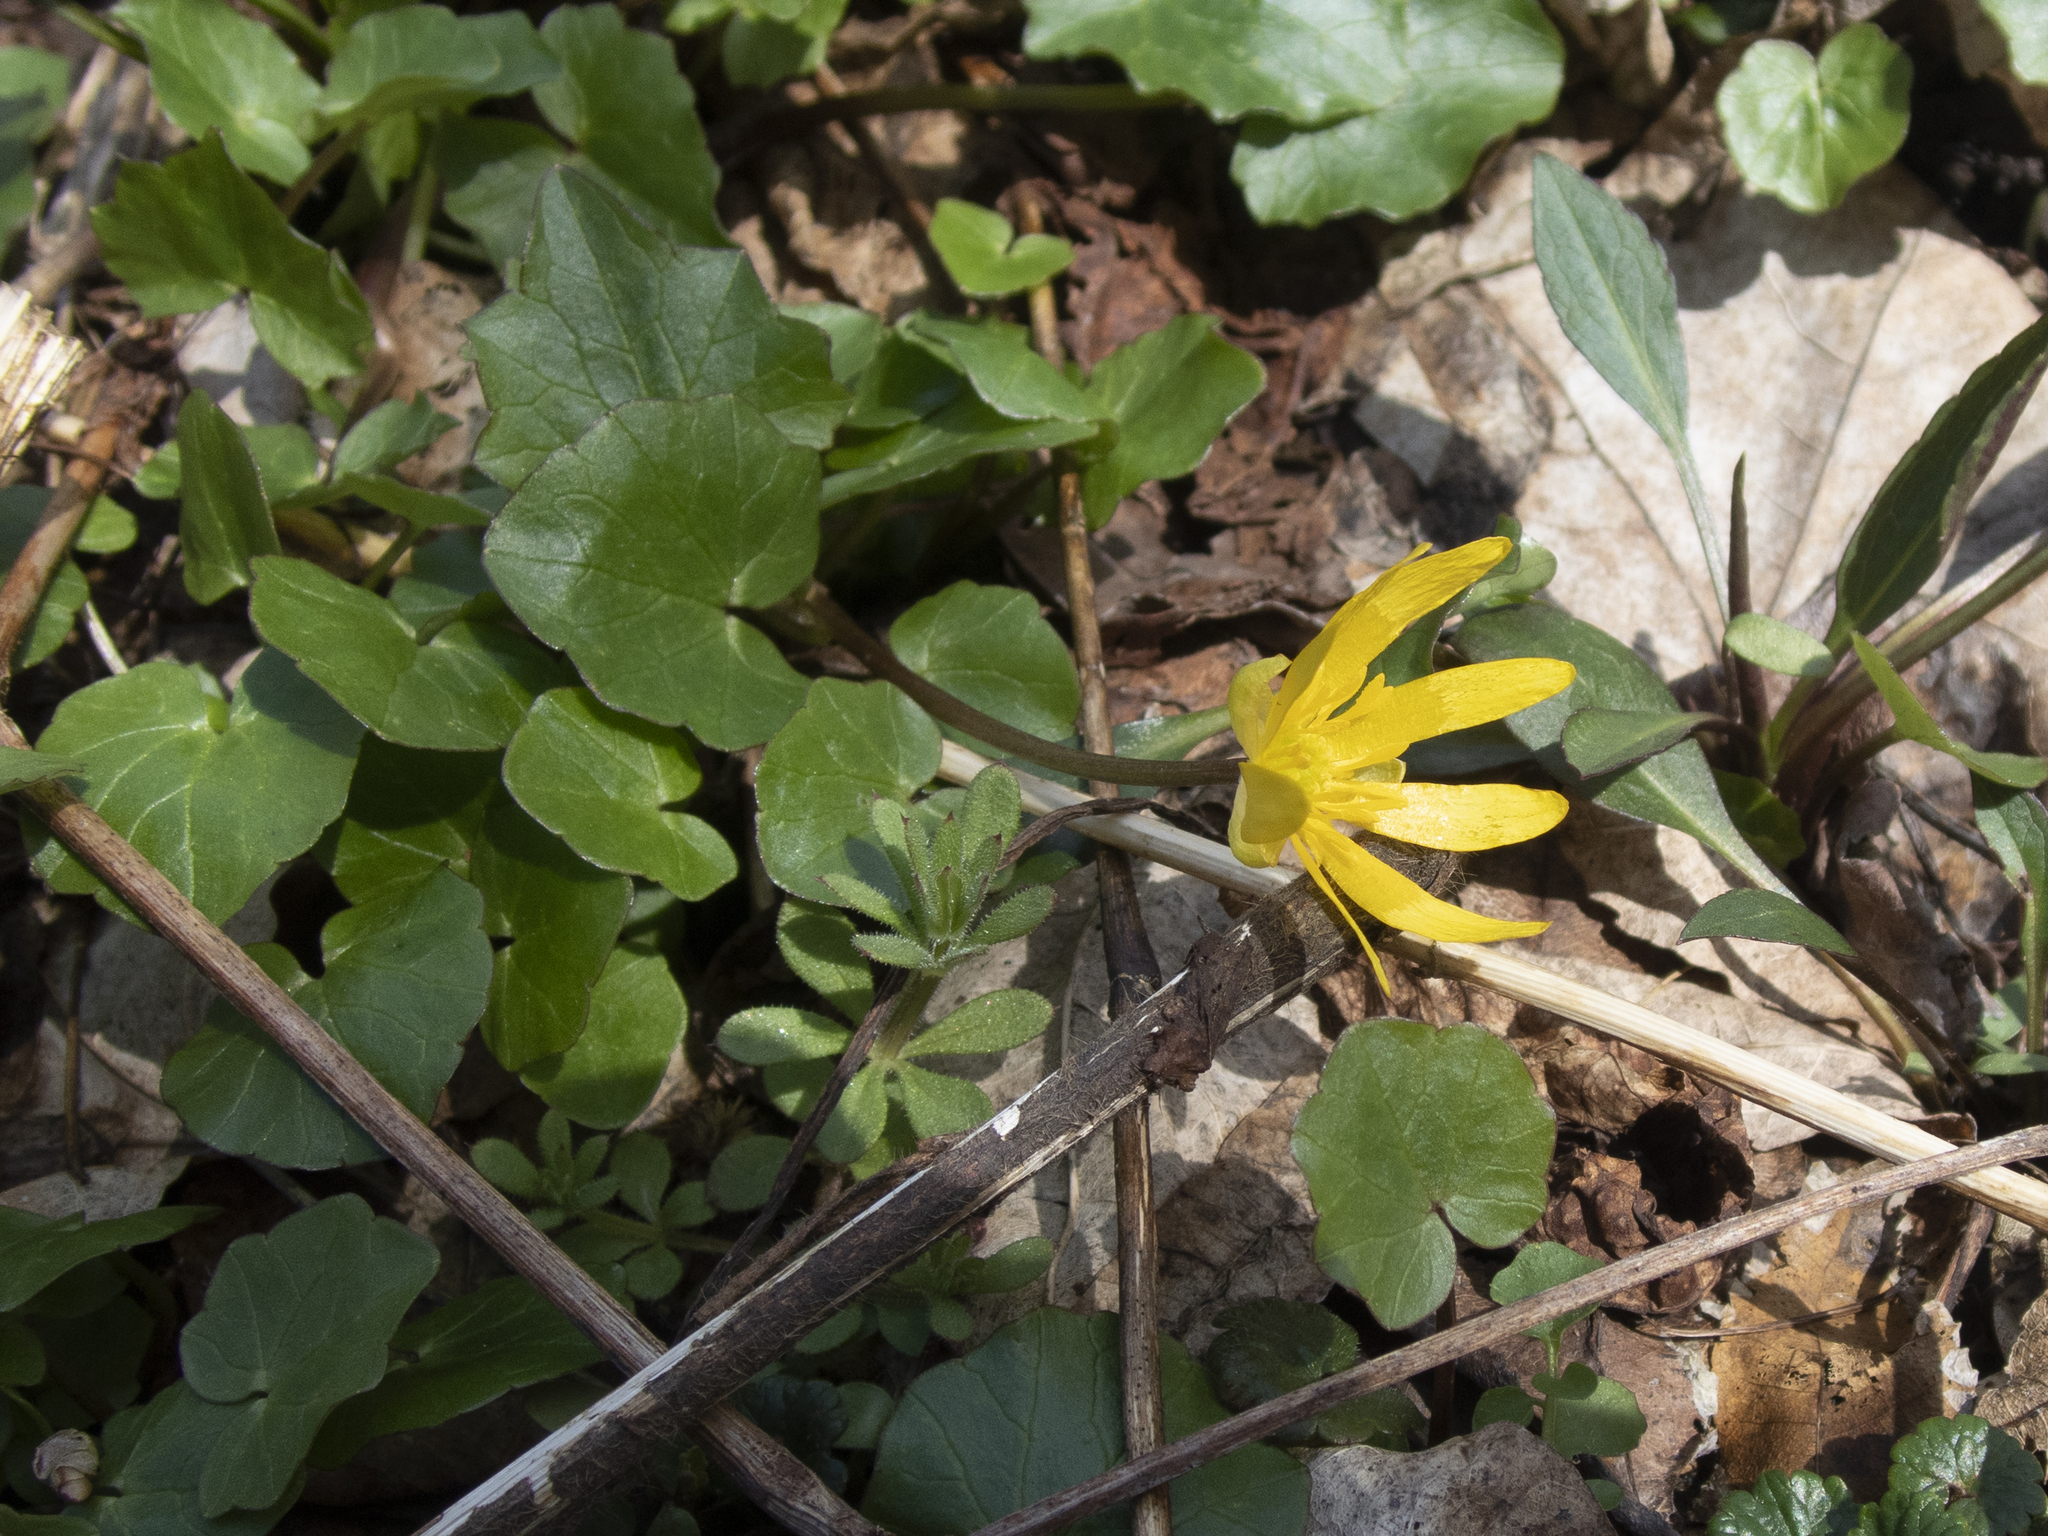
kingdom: Plantae
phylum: Tracheophyta
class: Magnoliopsida
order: Ranunculales
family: Ranunculaceae
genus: Ficaria
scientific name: Ficaria verna
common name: Lesser celandine
